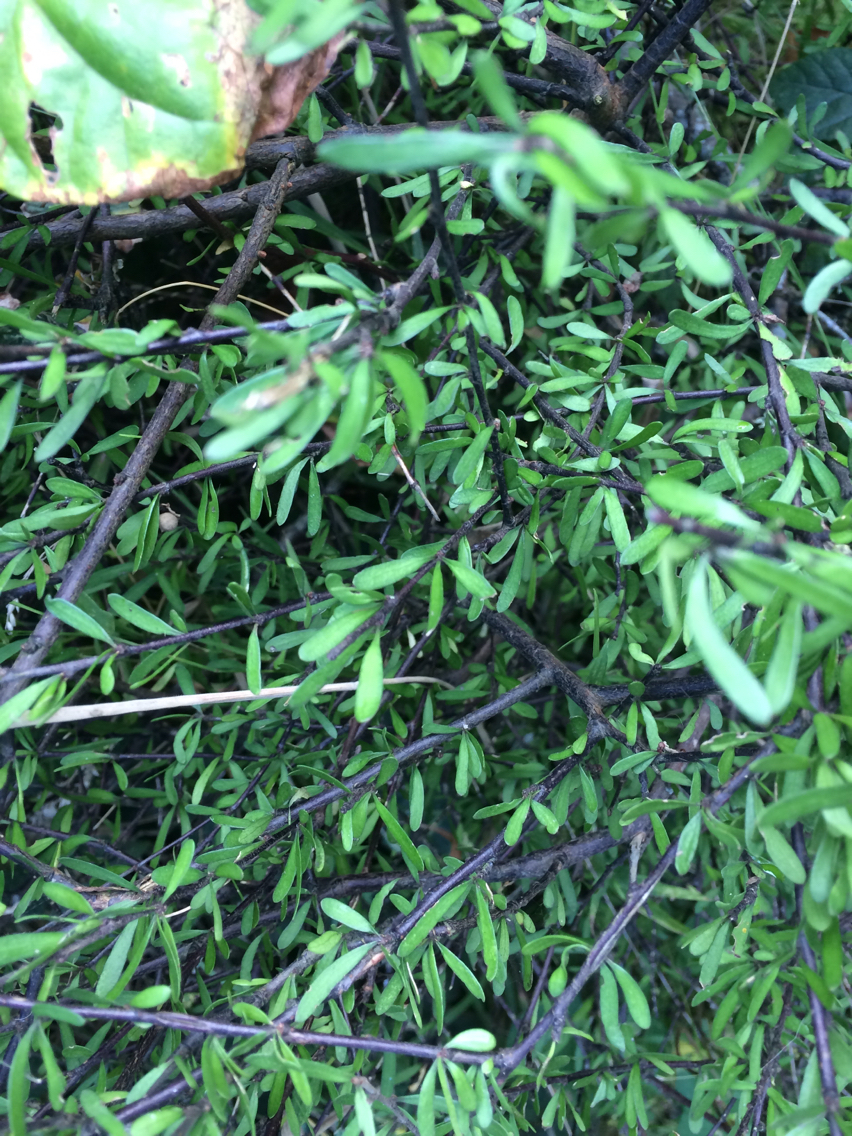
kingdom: Plantae
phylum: Tracheophyta
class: Magnoliopsida
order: Malvales
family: Malvaceae
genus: Plagianthus
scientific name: Plagianthus divaricatus
